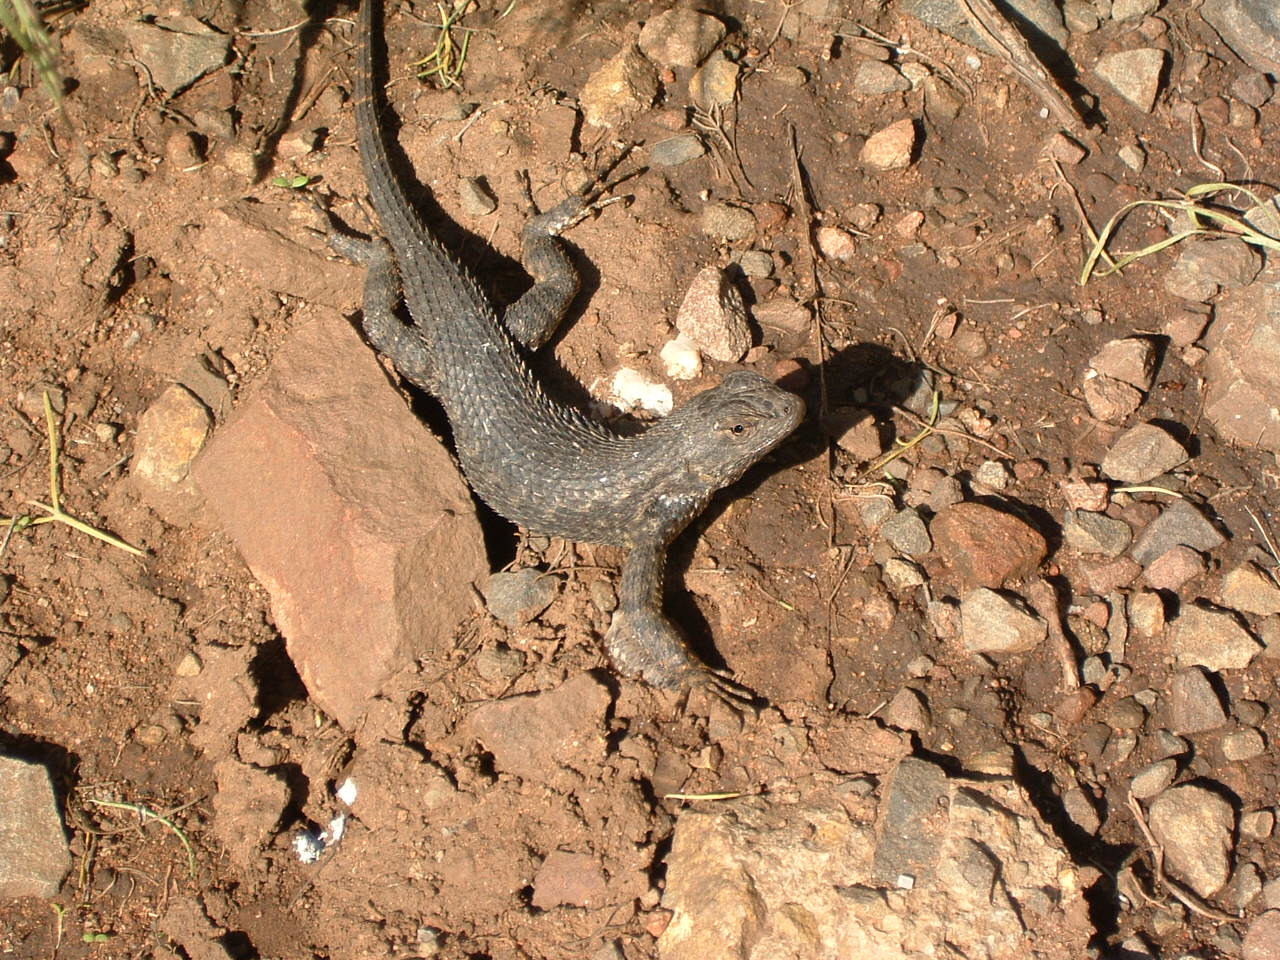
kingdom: Animalia
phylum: Chordata
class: Squamata
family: Phrynosomatidae
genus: Sceloporus
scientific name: Sceloporus occidentalis
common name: Western fence lizard
